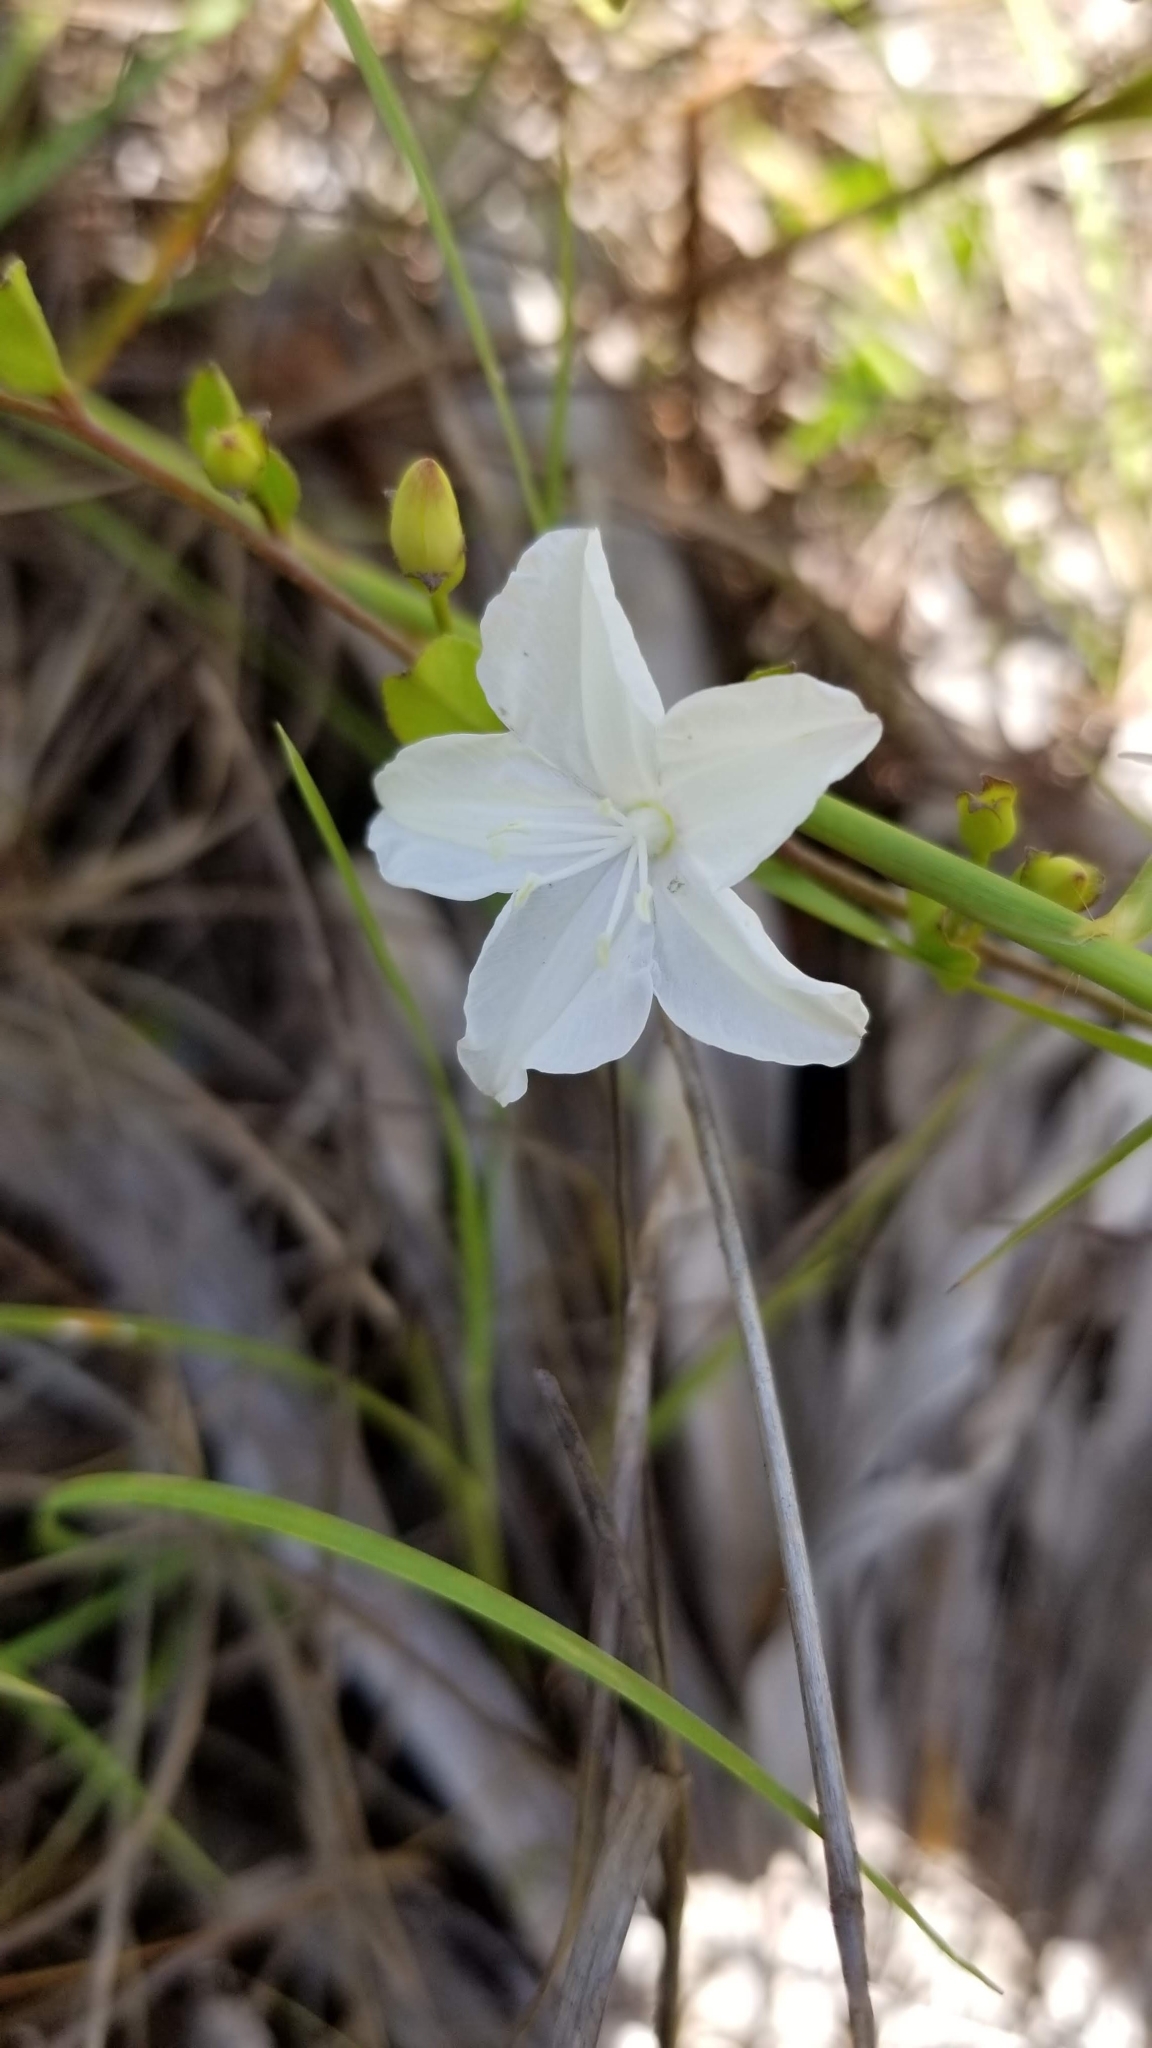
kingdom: Plantae
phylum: Tracheophyta
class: Magnoliopsida
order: Solanales
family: Convolvulaceae
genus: Jacquemontia
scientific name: Jacquemontia curtissii
